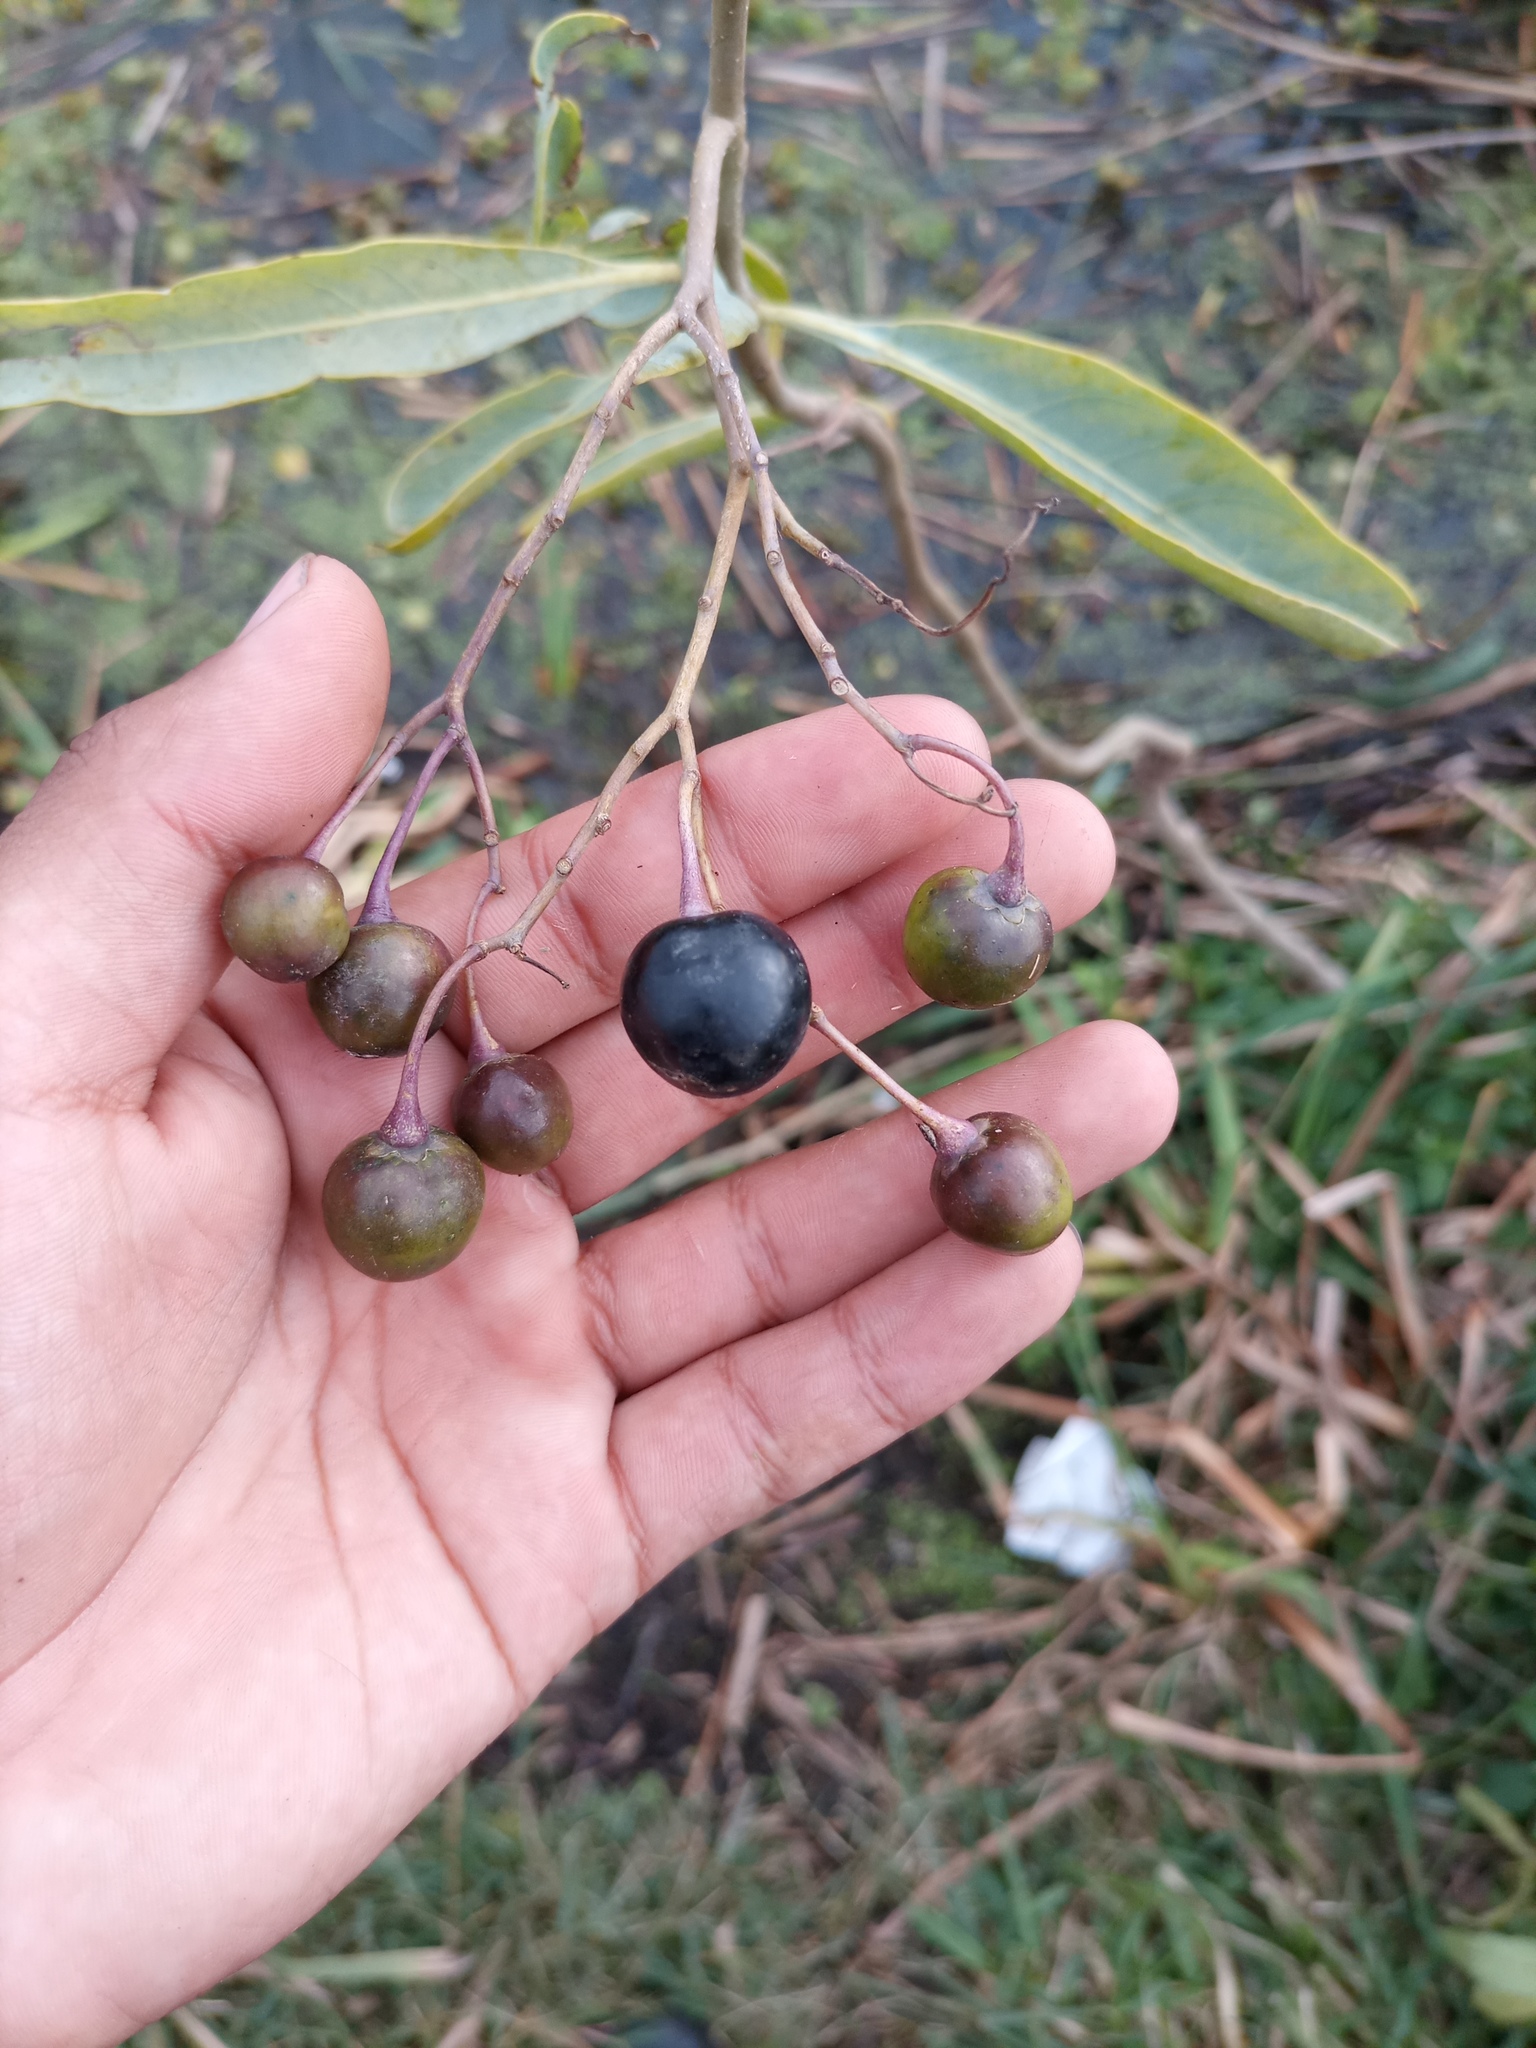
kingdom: Plantae
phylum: Tracheophyta
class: Magnoliopsida
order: Solanales
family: Solanaceae
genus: Solanum
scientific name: Solanum glaucophyllum
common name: Waxyleaf nightshade
